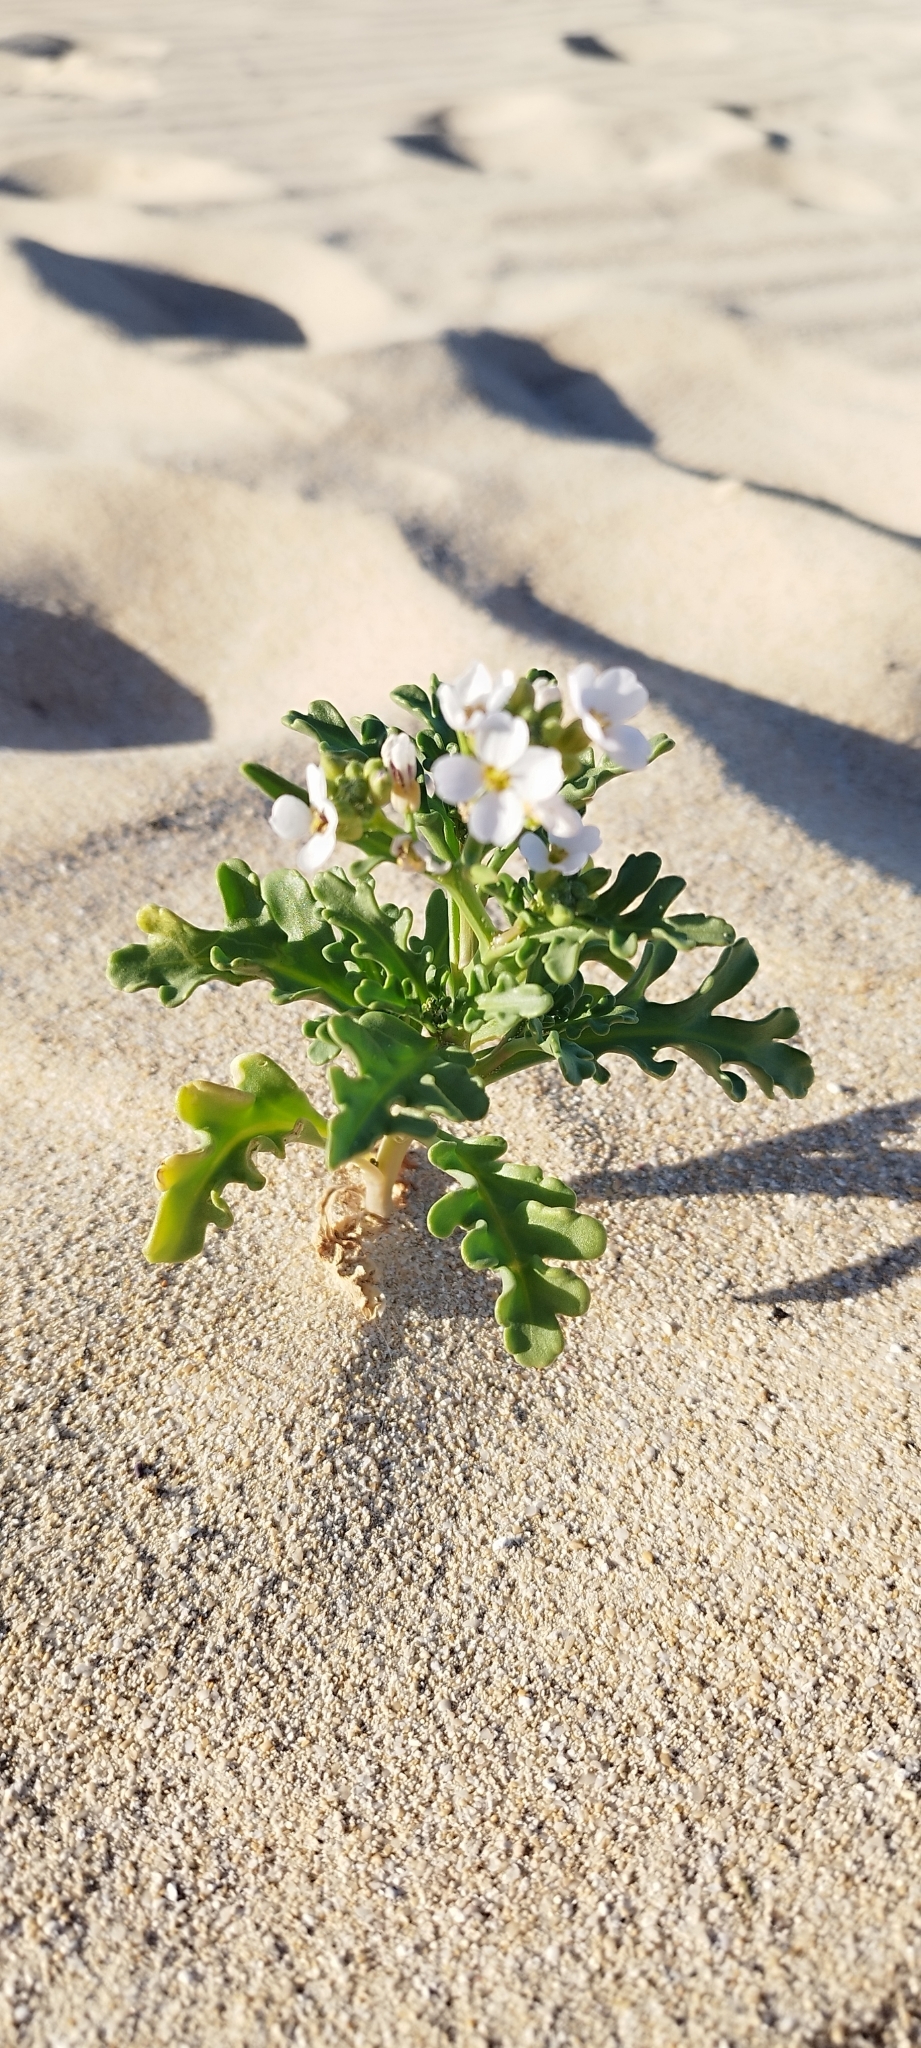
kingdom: Plantae
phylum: Tracheophyta
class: Magnoliopsida
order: Brassicales
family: Brassicaceae
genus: Cakile
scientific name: Cakile maritima
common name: Sea rocket
